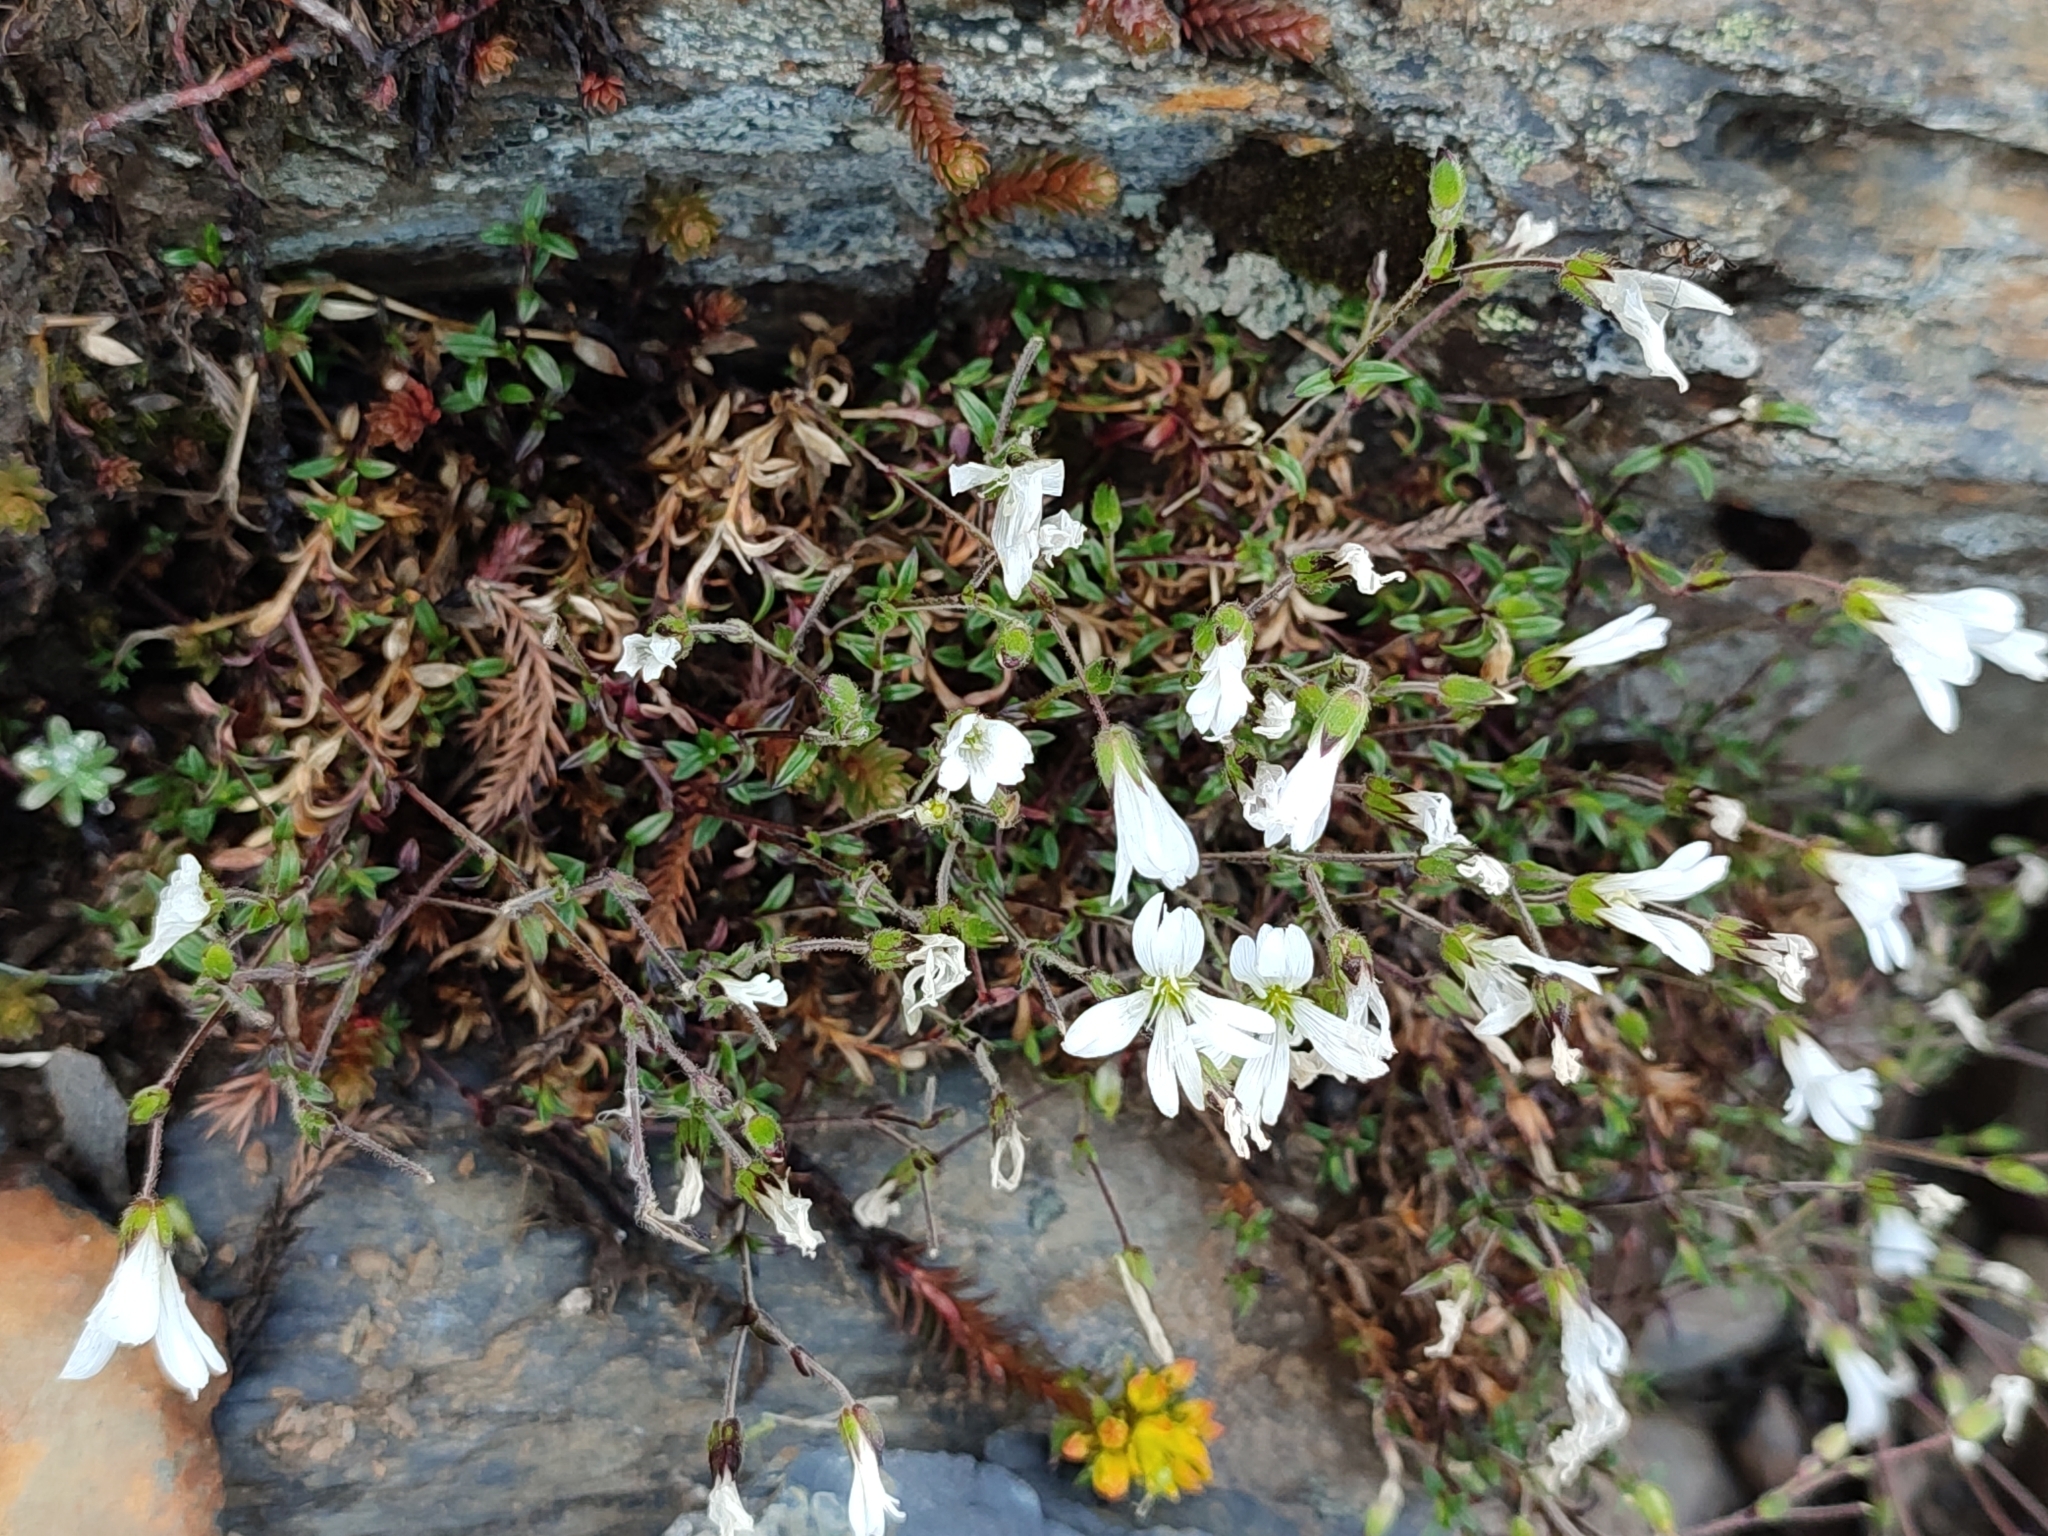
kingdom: Plantae
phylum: Tracheophyta
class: Magnoliopsida
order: Caryophyllales
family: Caryophyllaceae
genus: Cerastium
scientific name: Cerastium morrisonense
